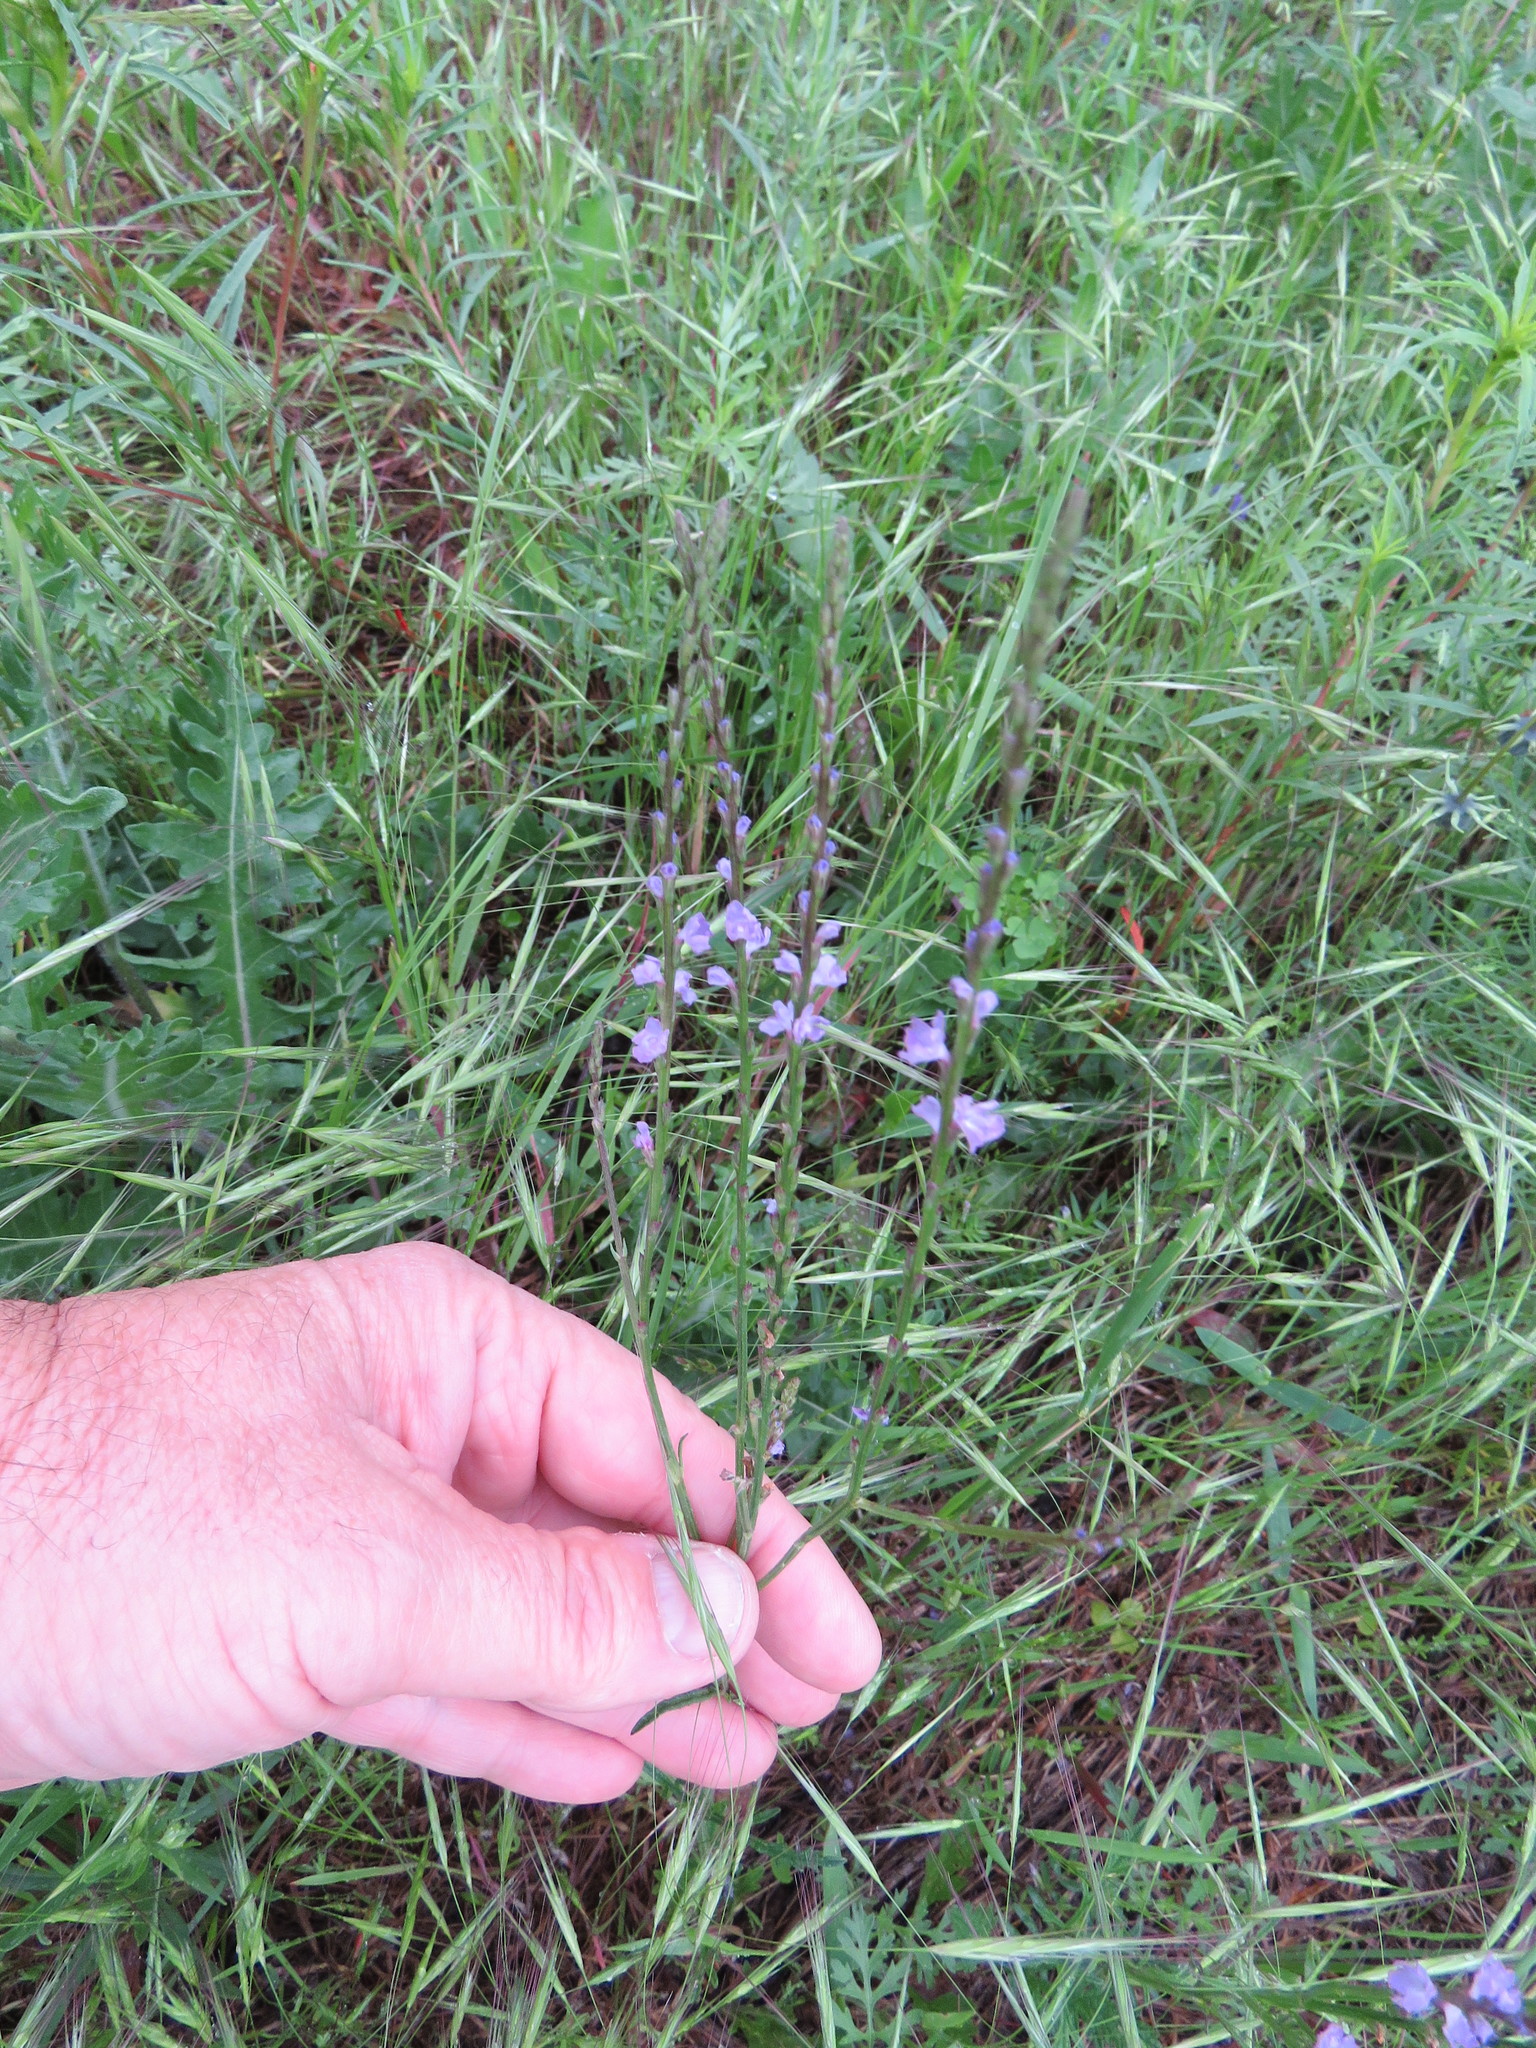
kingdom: Plantae
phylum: Tracheophyta
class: Magnoliopsida
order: Lamiales
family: Verbenaceae
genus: Verbena
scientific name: Verbena halei
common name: Texas vervain
